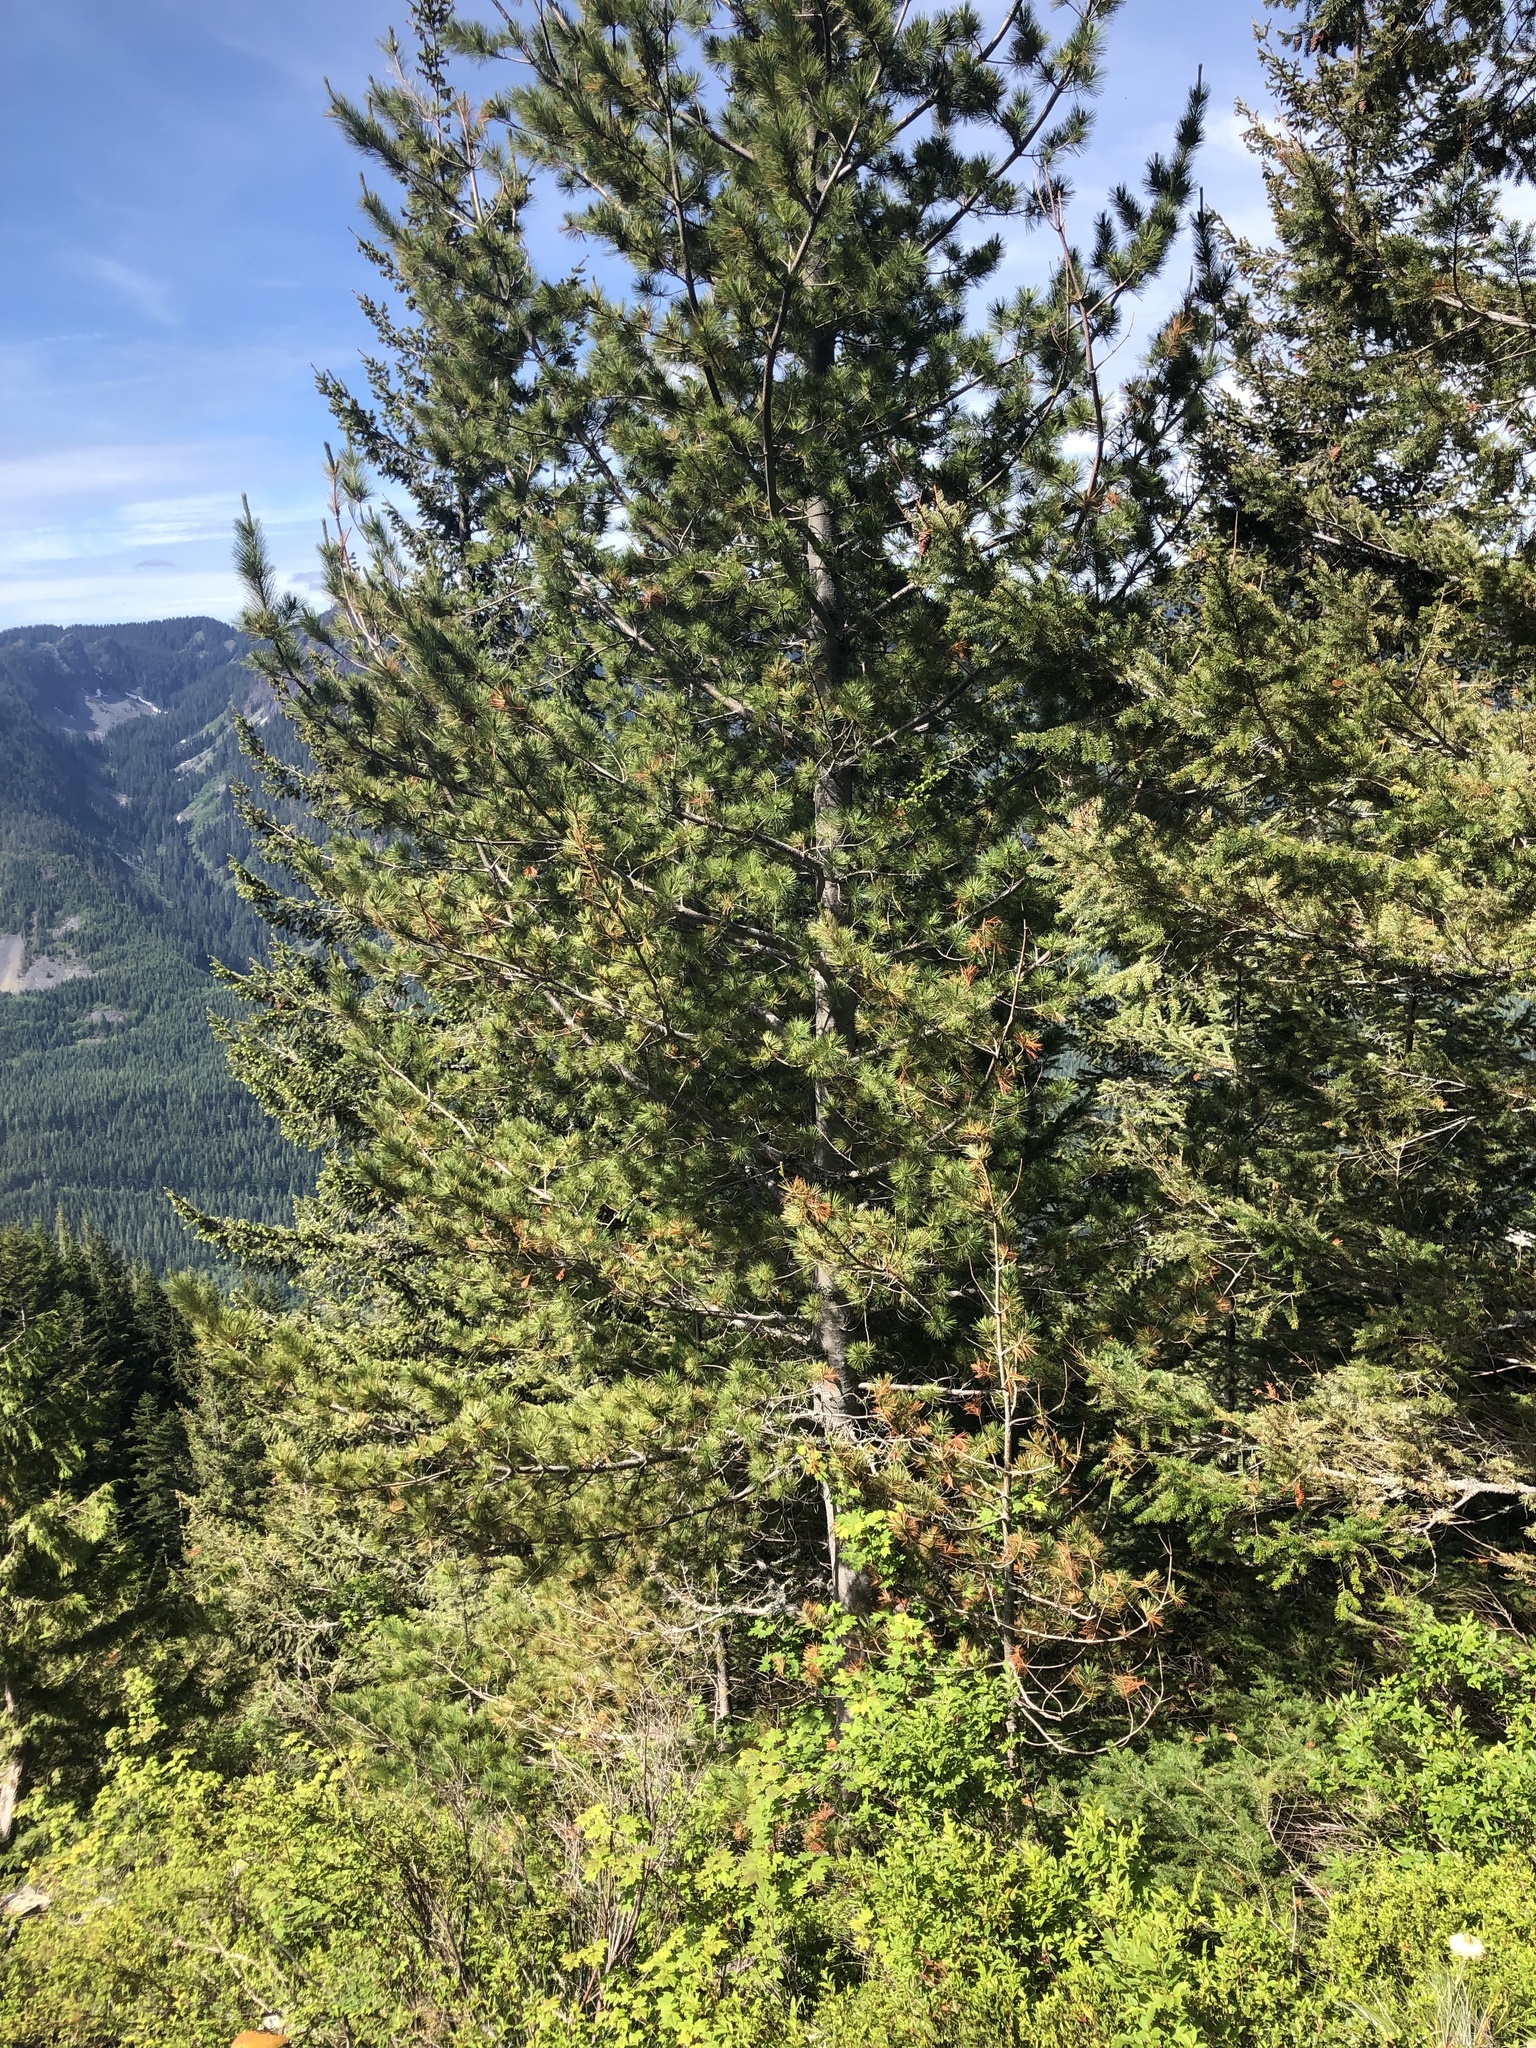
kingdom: Plantae
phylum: Tracheophyta
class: Pinopsida
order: Pinales
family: Pinaceae
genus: Pinus
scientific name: Pinus monticola
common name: Western white pine
